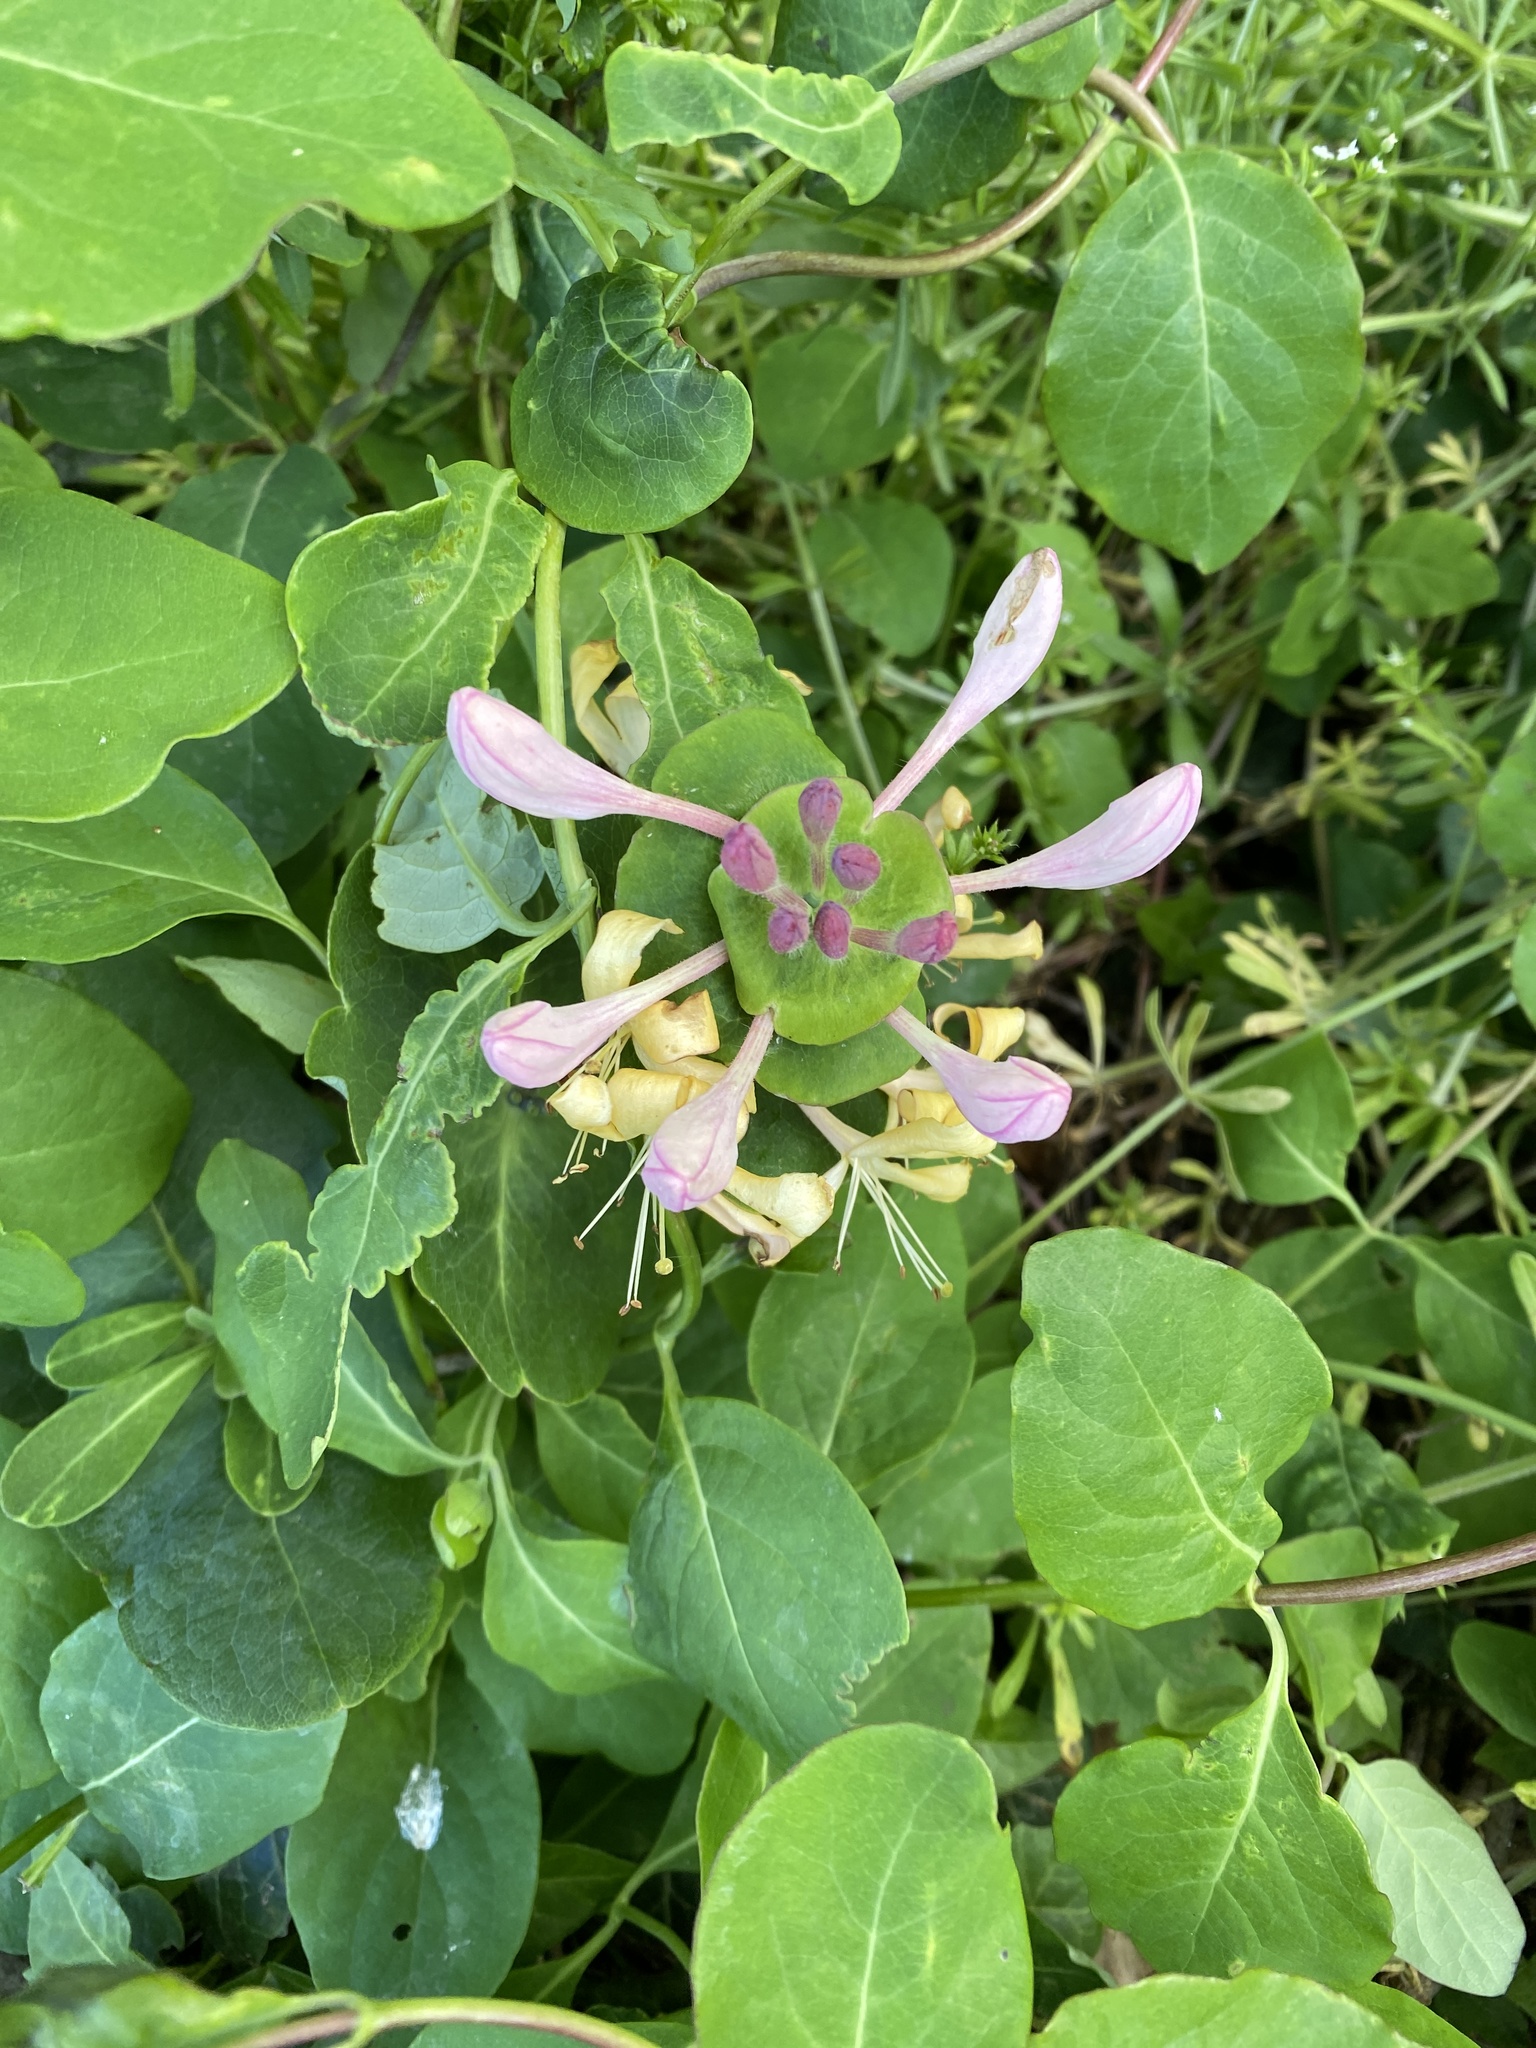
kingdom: Plantae
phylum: Tracheophyta
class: Magnoliopsida
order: Dipsacales
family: Caprifoliaceae
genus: Lonicera
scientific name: Lonicera caprifolium
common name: Perfoliate honeysuckle
